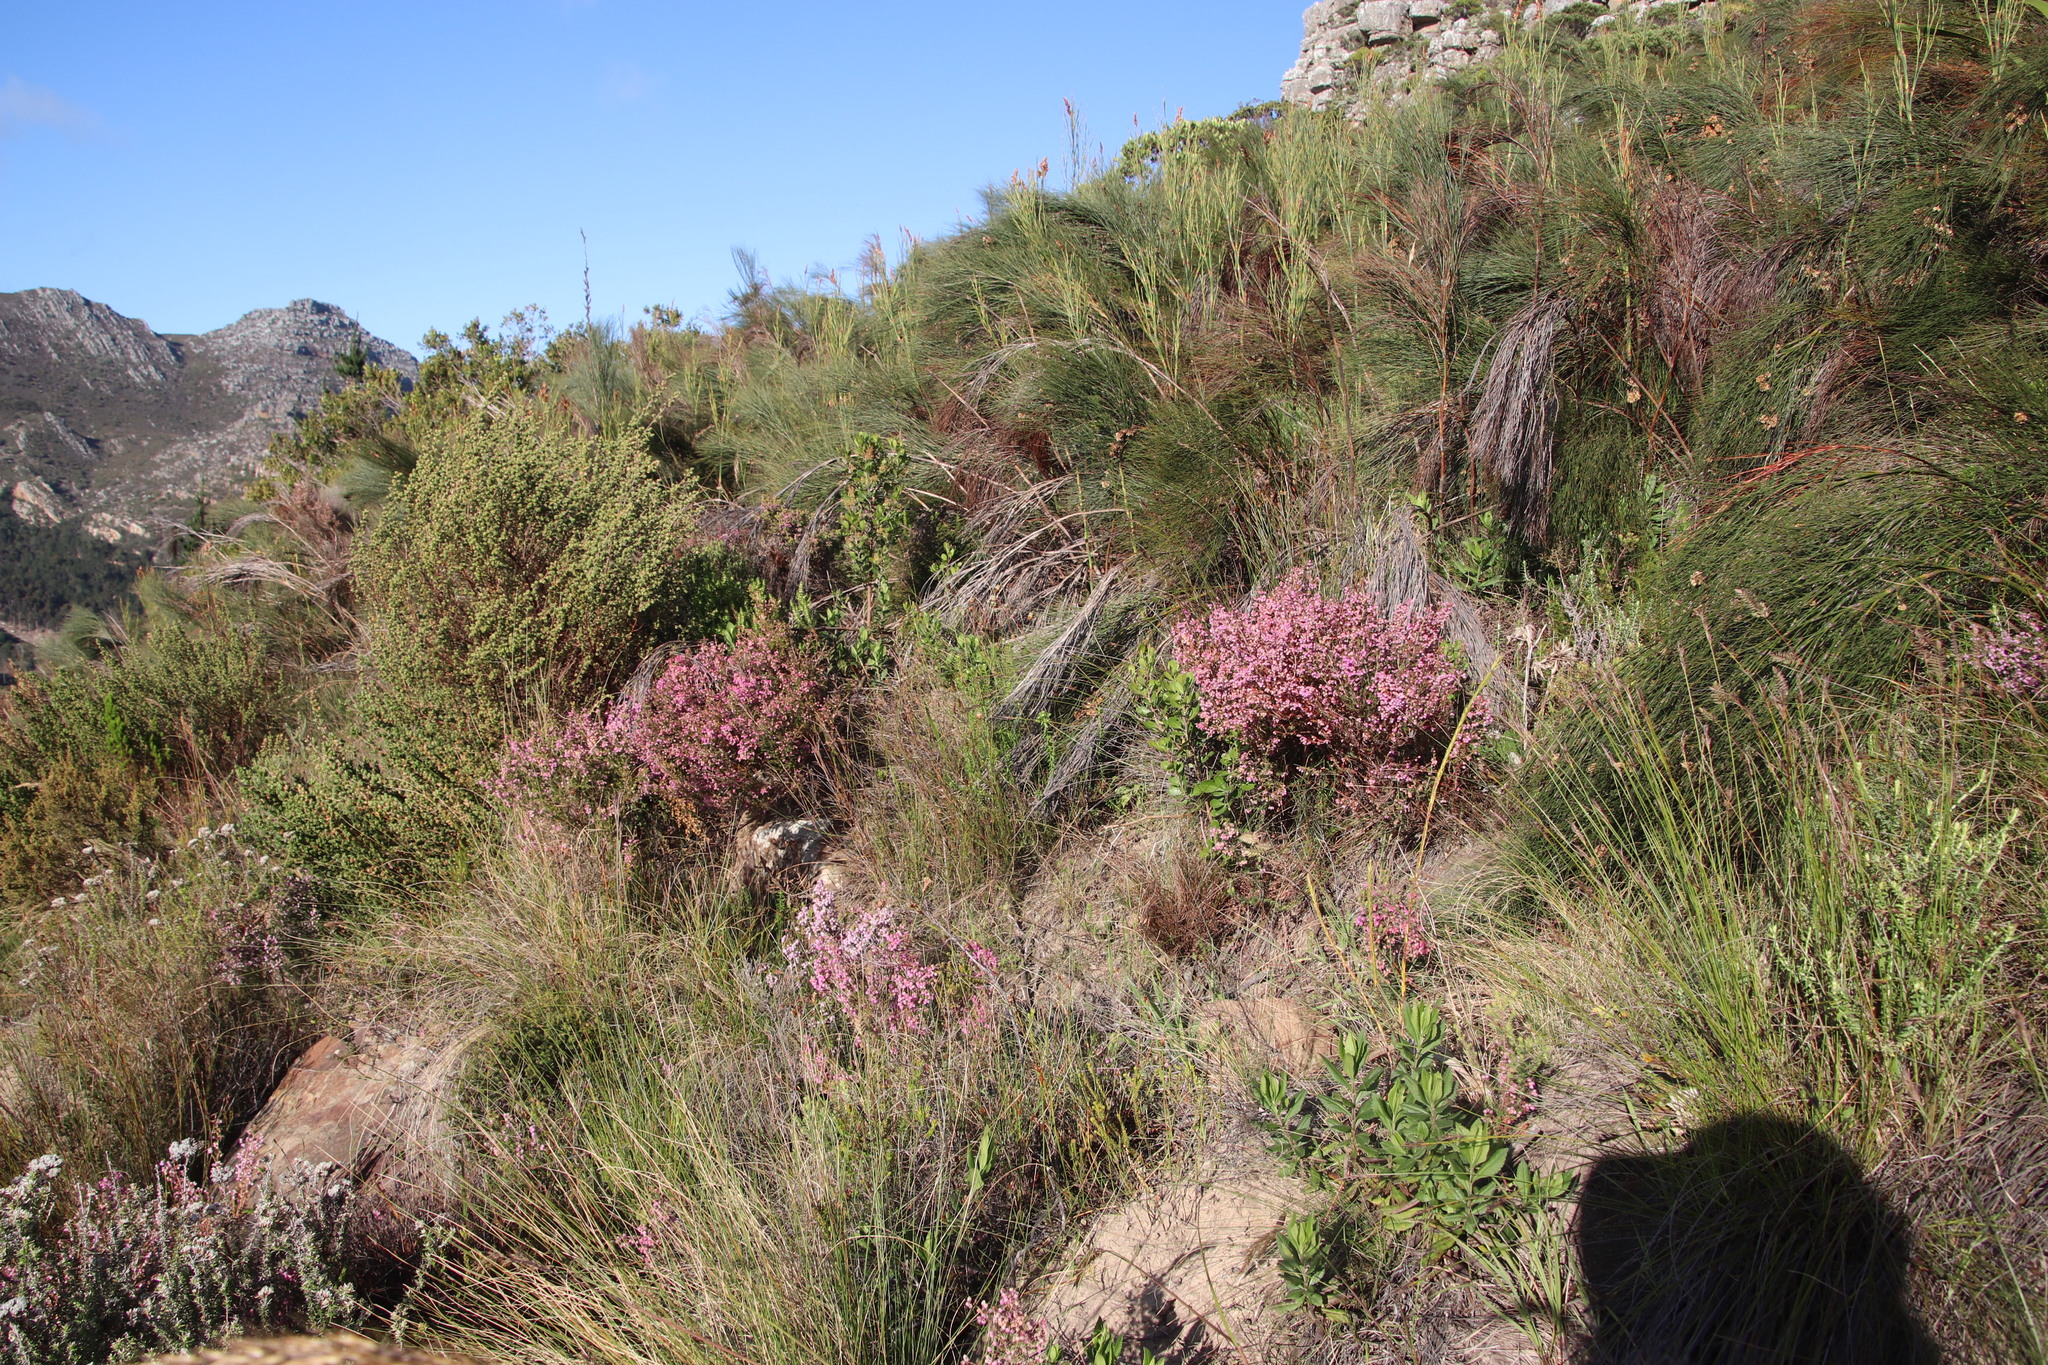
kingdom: Plantae
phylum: Tracheophyta
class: Magnoliopsida
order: Ericales
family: Ericaceae
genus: Erica
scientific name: Erica hirtiflora
